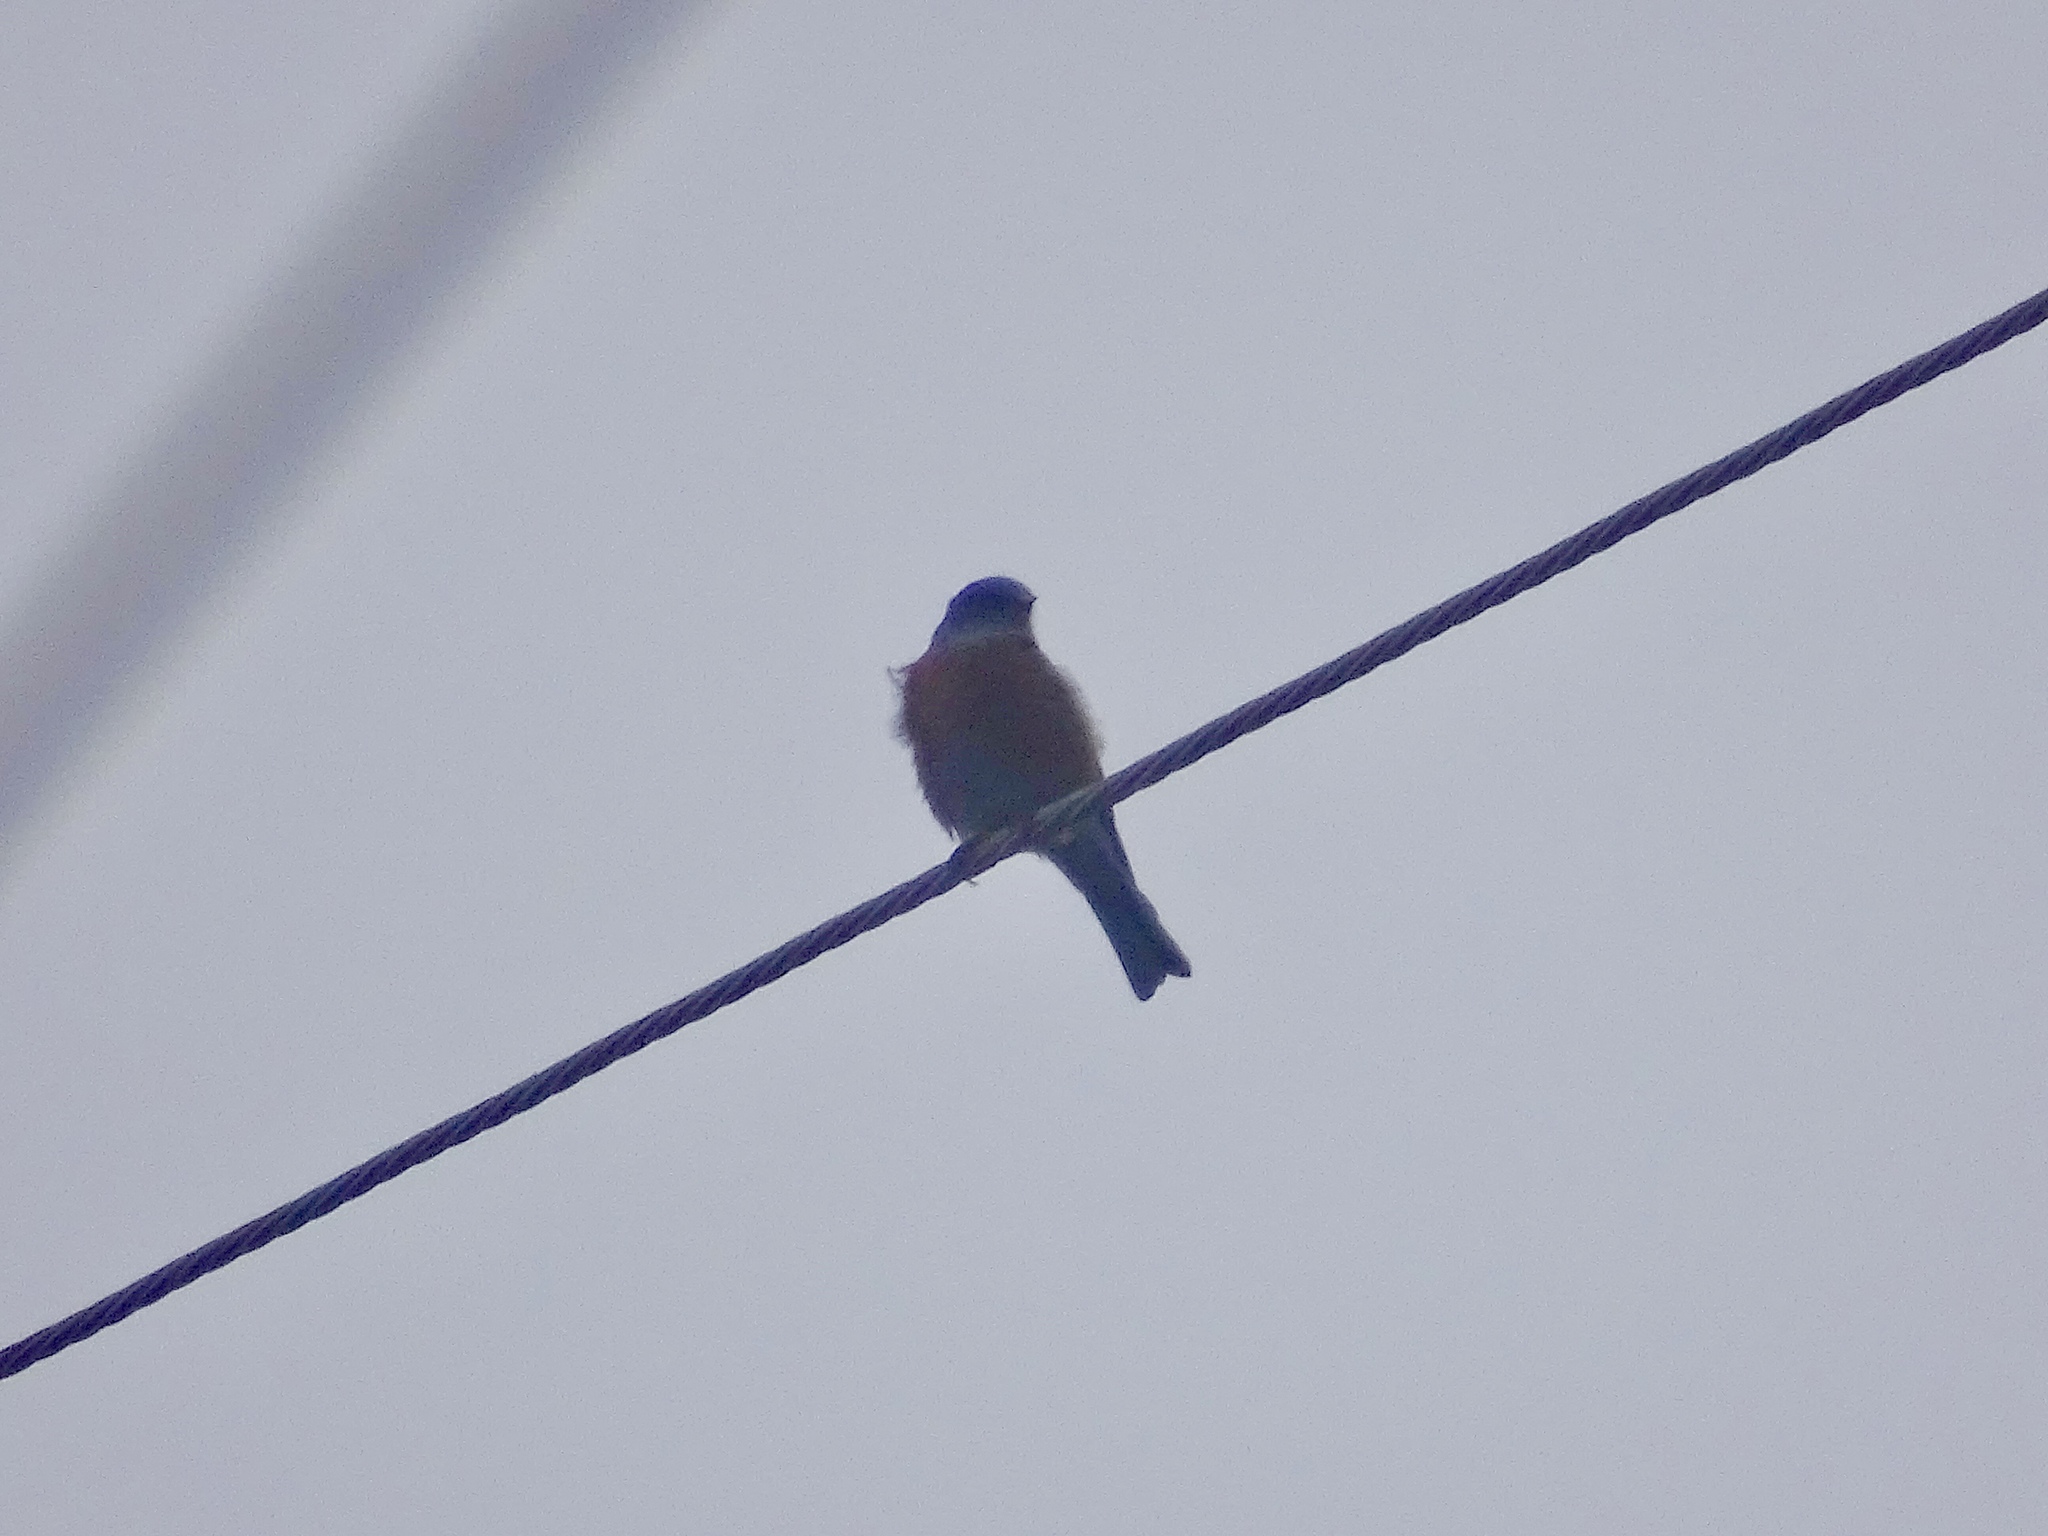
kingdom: Animalia
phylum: Chordata
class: Aves
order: Passeriformes
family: Turdidae
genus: Sialia
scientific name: Sialia mexicana
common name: Western bluebird
